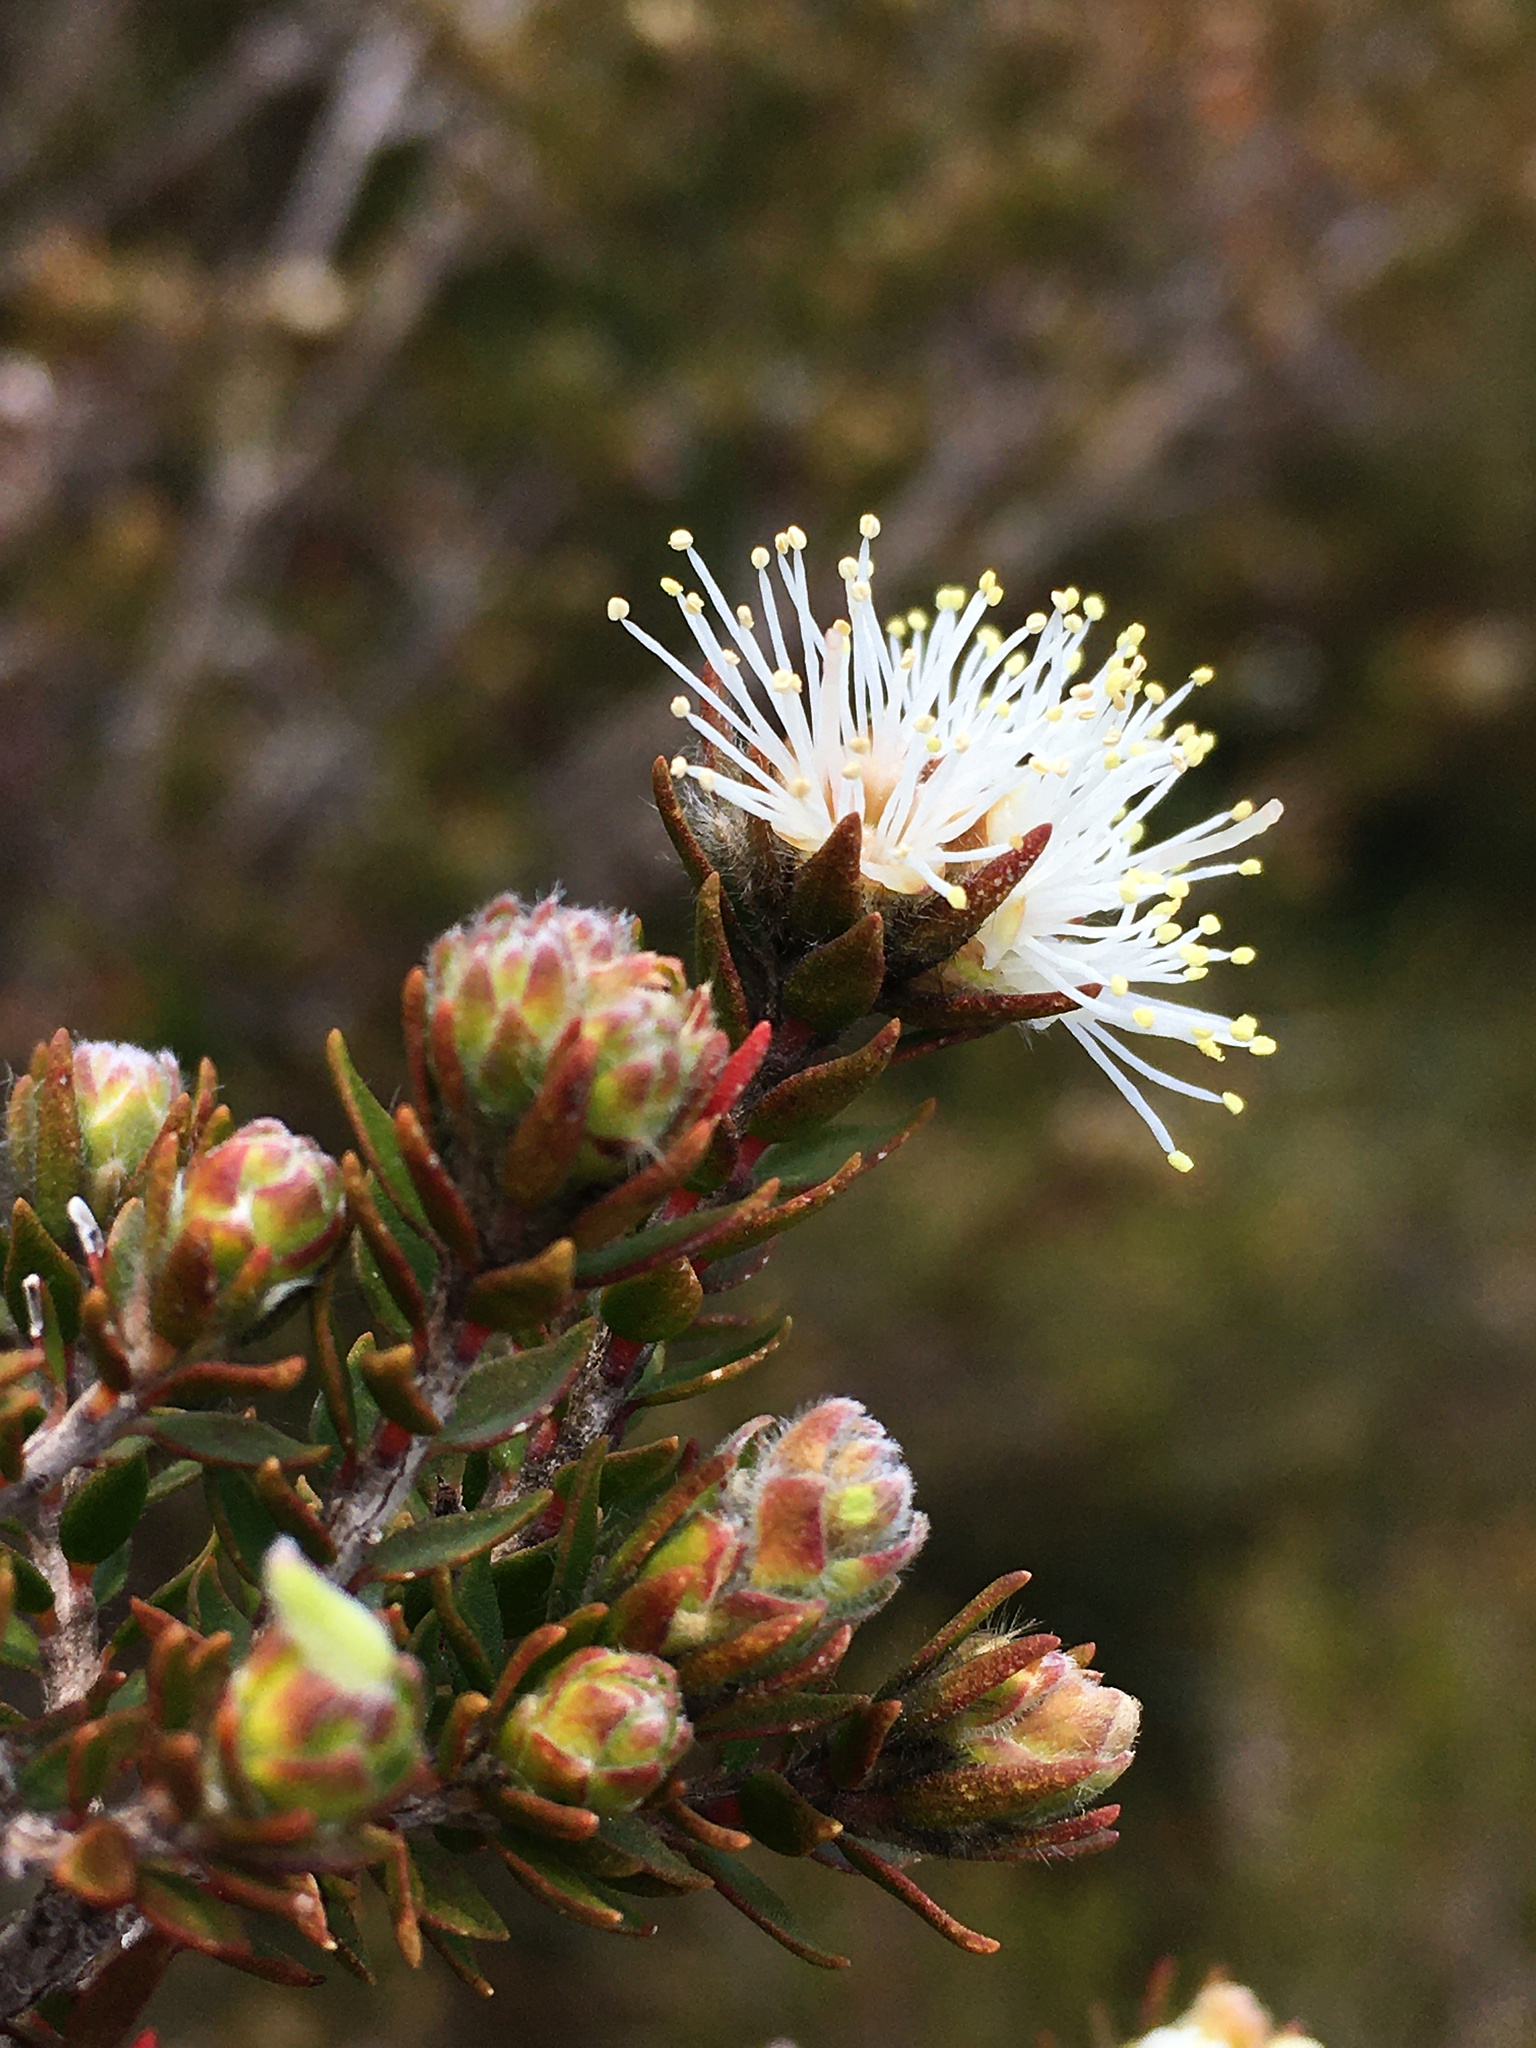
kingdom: Plantae
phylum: Tracheophyta
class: Magnoliopsida
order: Myrtales
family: Myrtaceae
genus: Melaleuca
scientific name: Melaleuca squamea
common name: Swamp melaleuca
